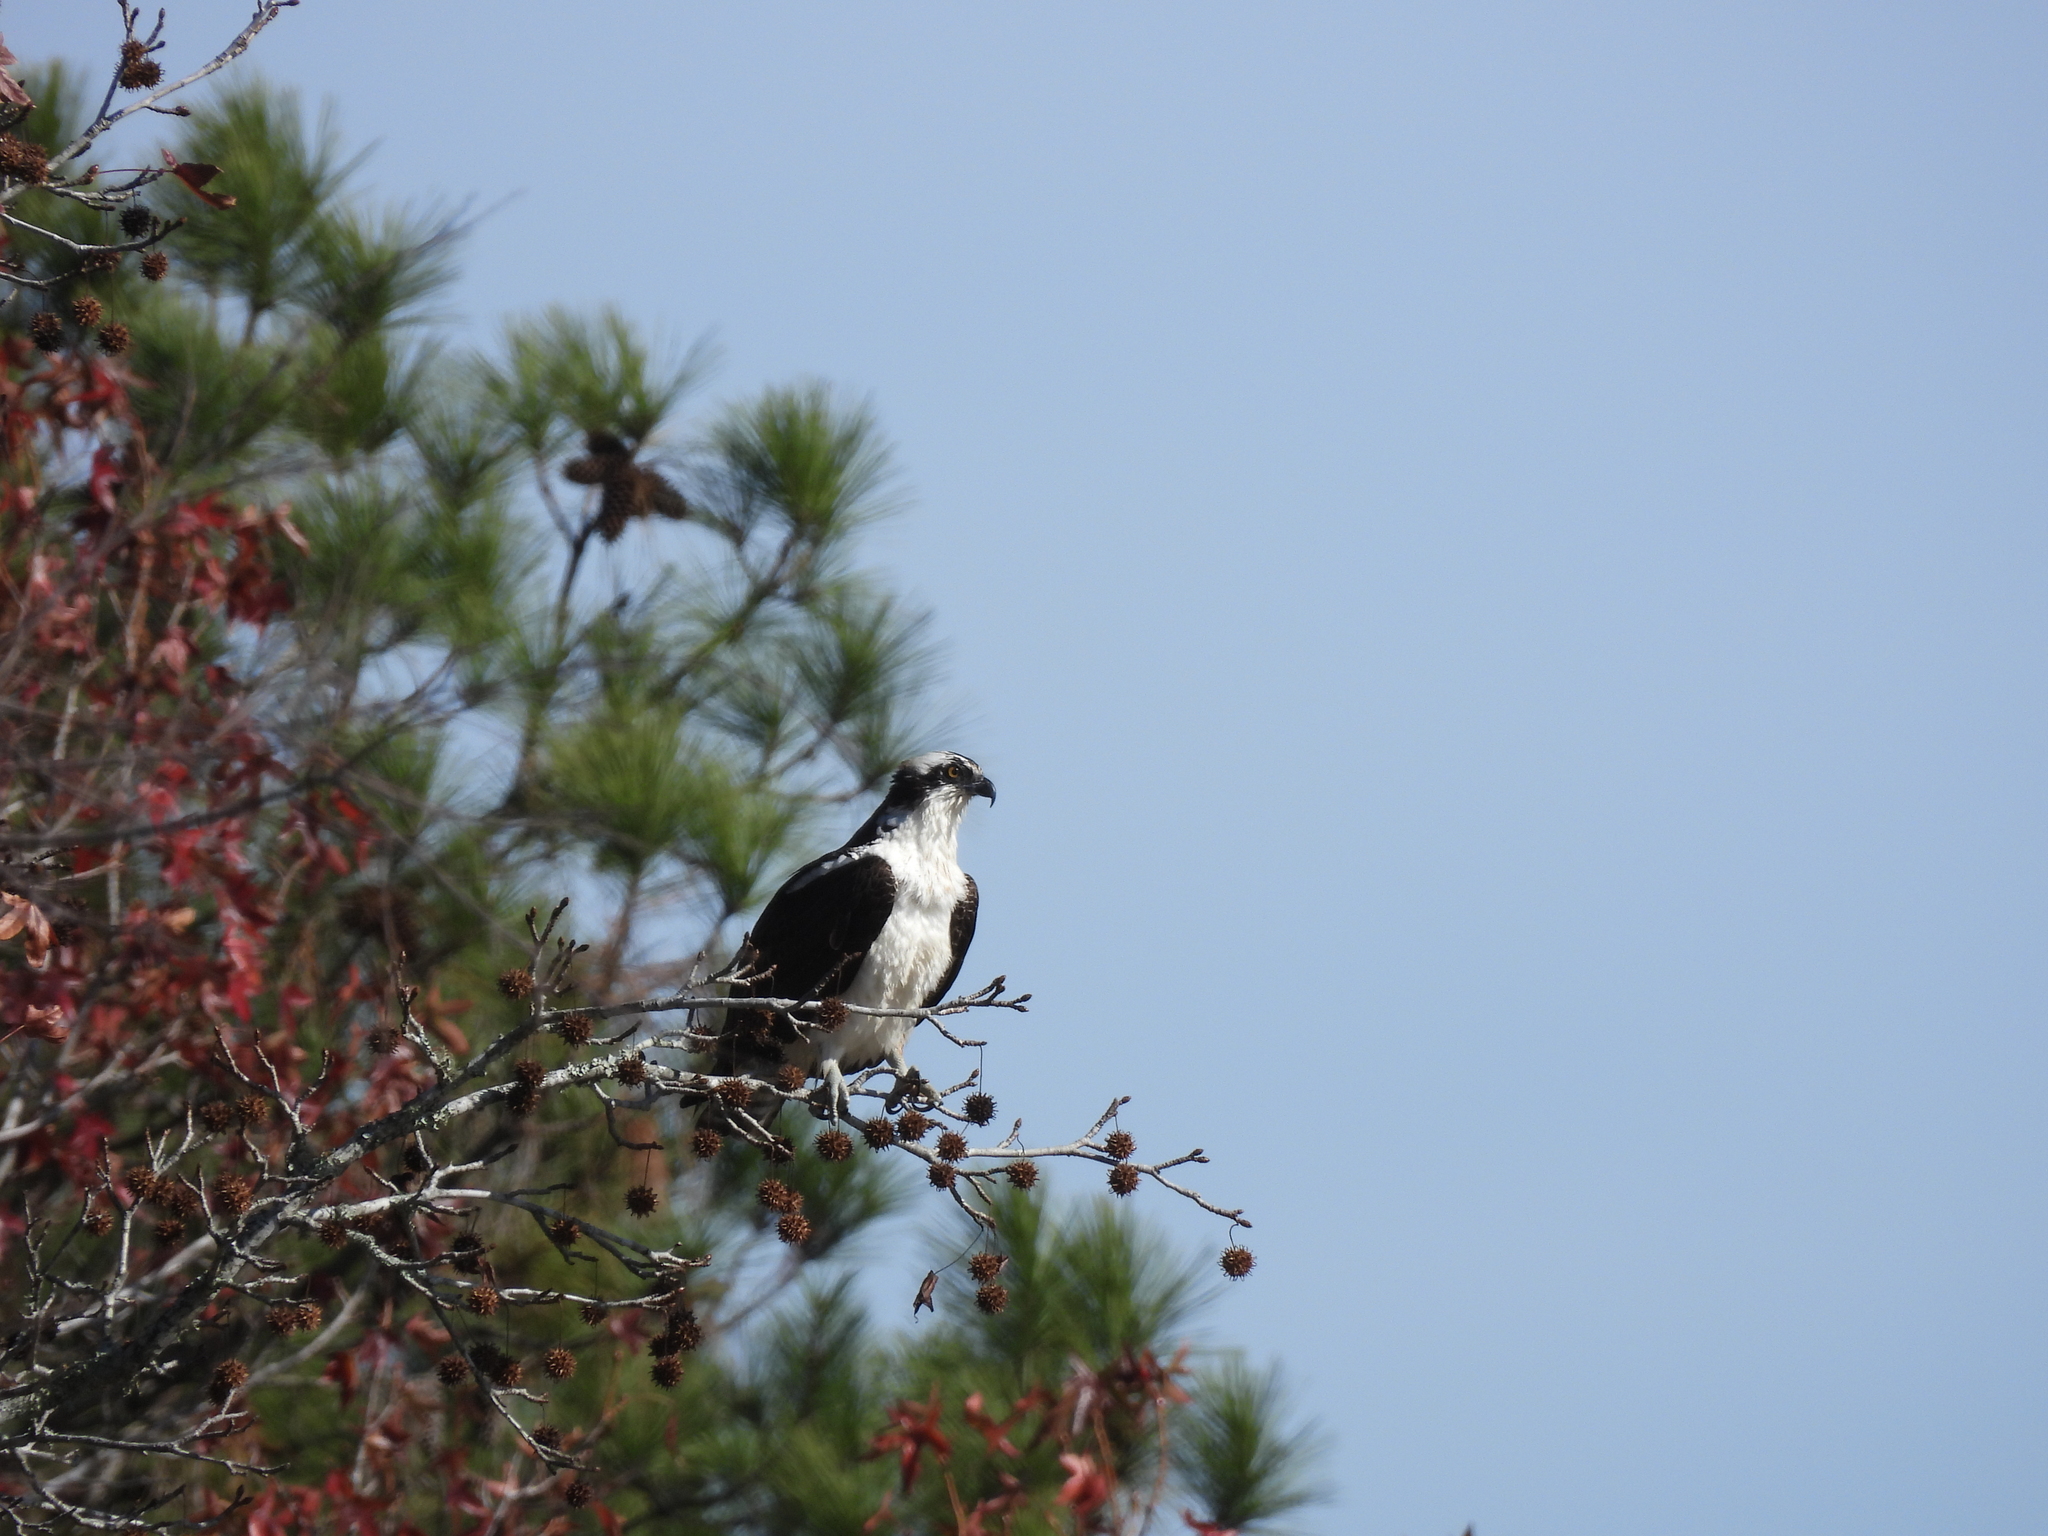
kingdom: Animalia
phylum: Chordata
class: Aves
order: Accipitriformes
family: Pandionidae
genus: Pandion
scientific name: Pandion haliaetus
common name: Osprey
